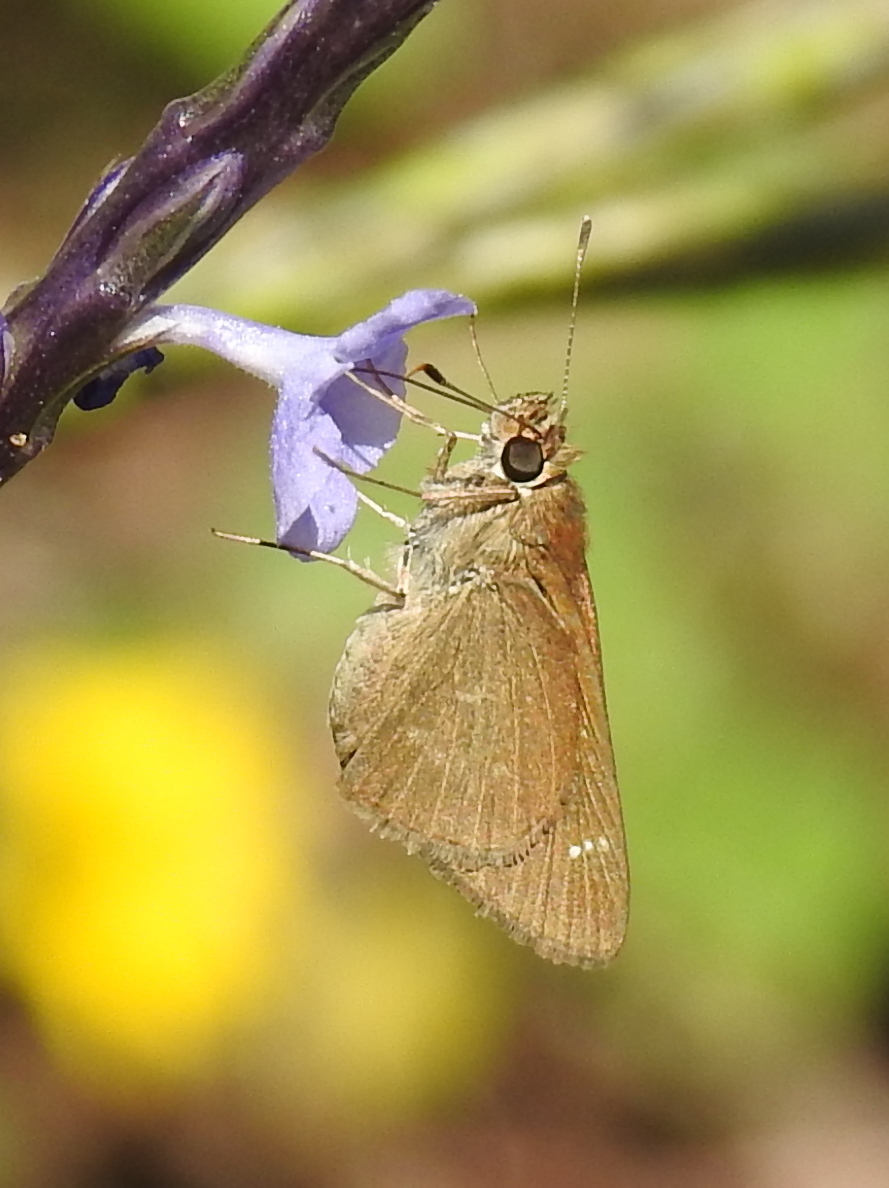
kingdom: Animalia
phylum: Arthropoda
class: Insecta
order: Lepidoptera
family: Hesperiidae
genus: Cymaenes
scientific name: Cymaenes tripunctus
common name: Dingy dotted skipper
